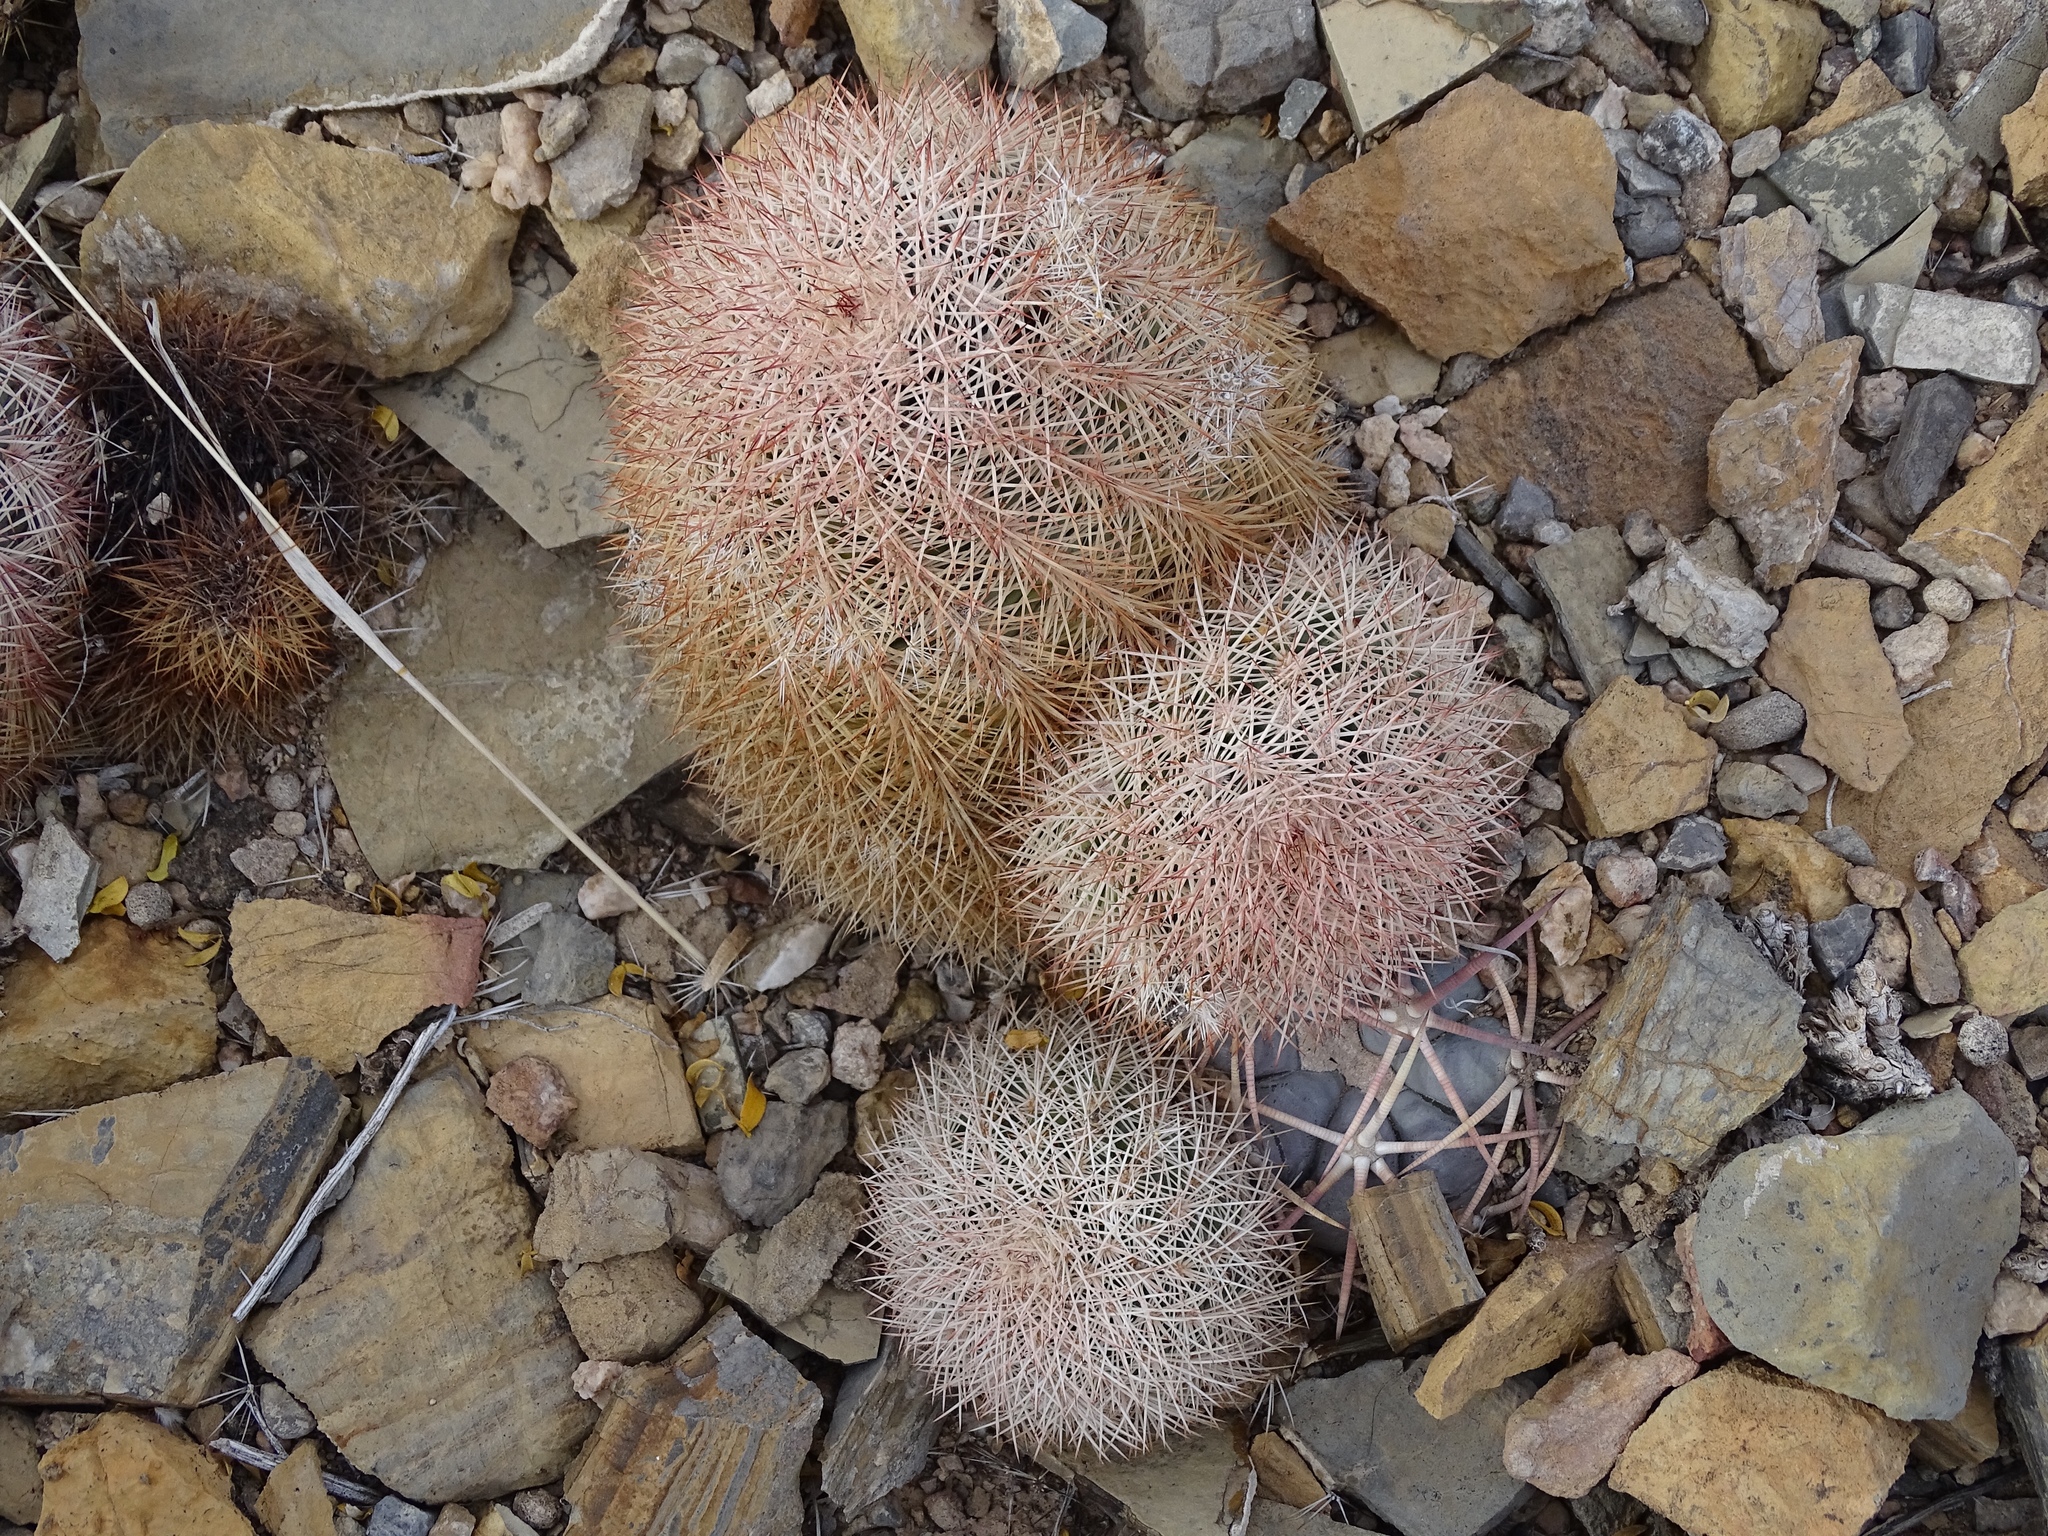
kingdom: Plantae
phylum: Tracheophyta
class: Magnoliopsida
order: Caryophyllales
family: Cactaceae
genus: Echinocereus
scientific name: Echinocereus dasyacanthus
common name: Spiny hedgehog cactus
